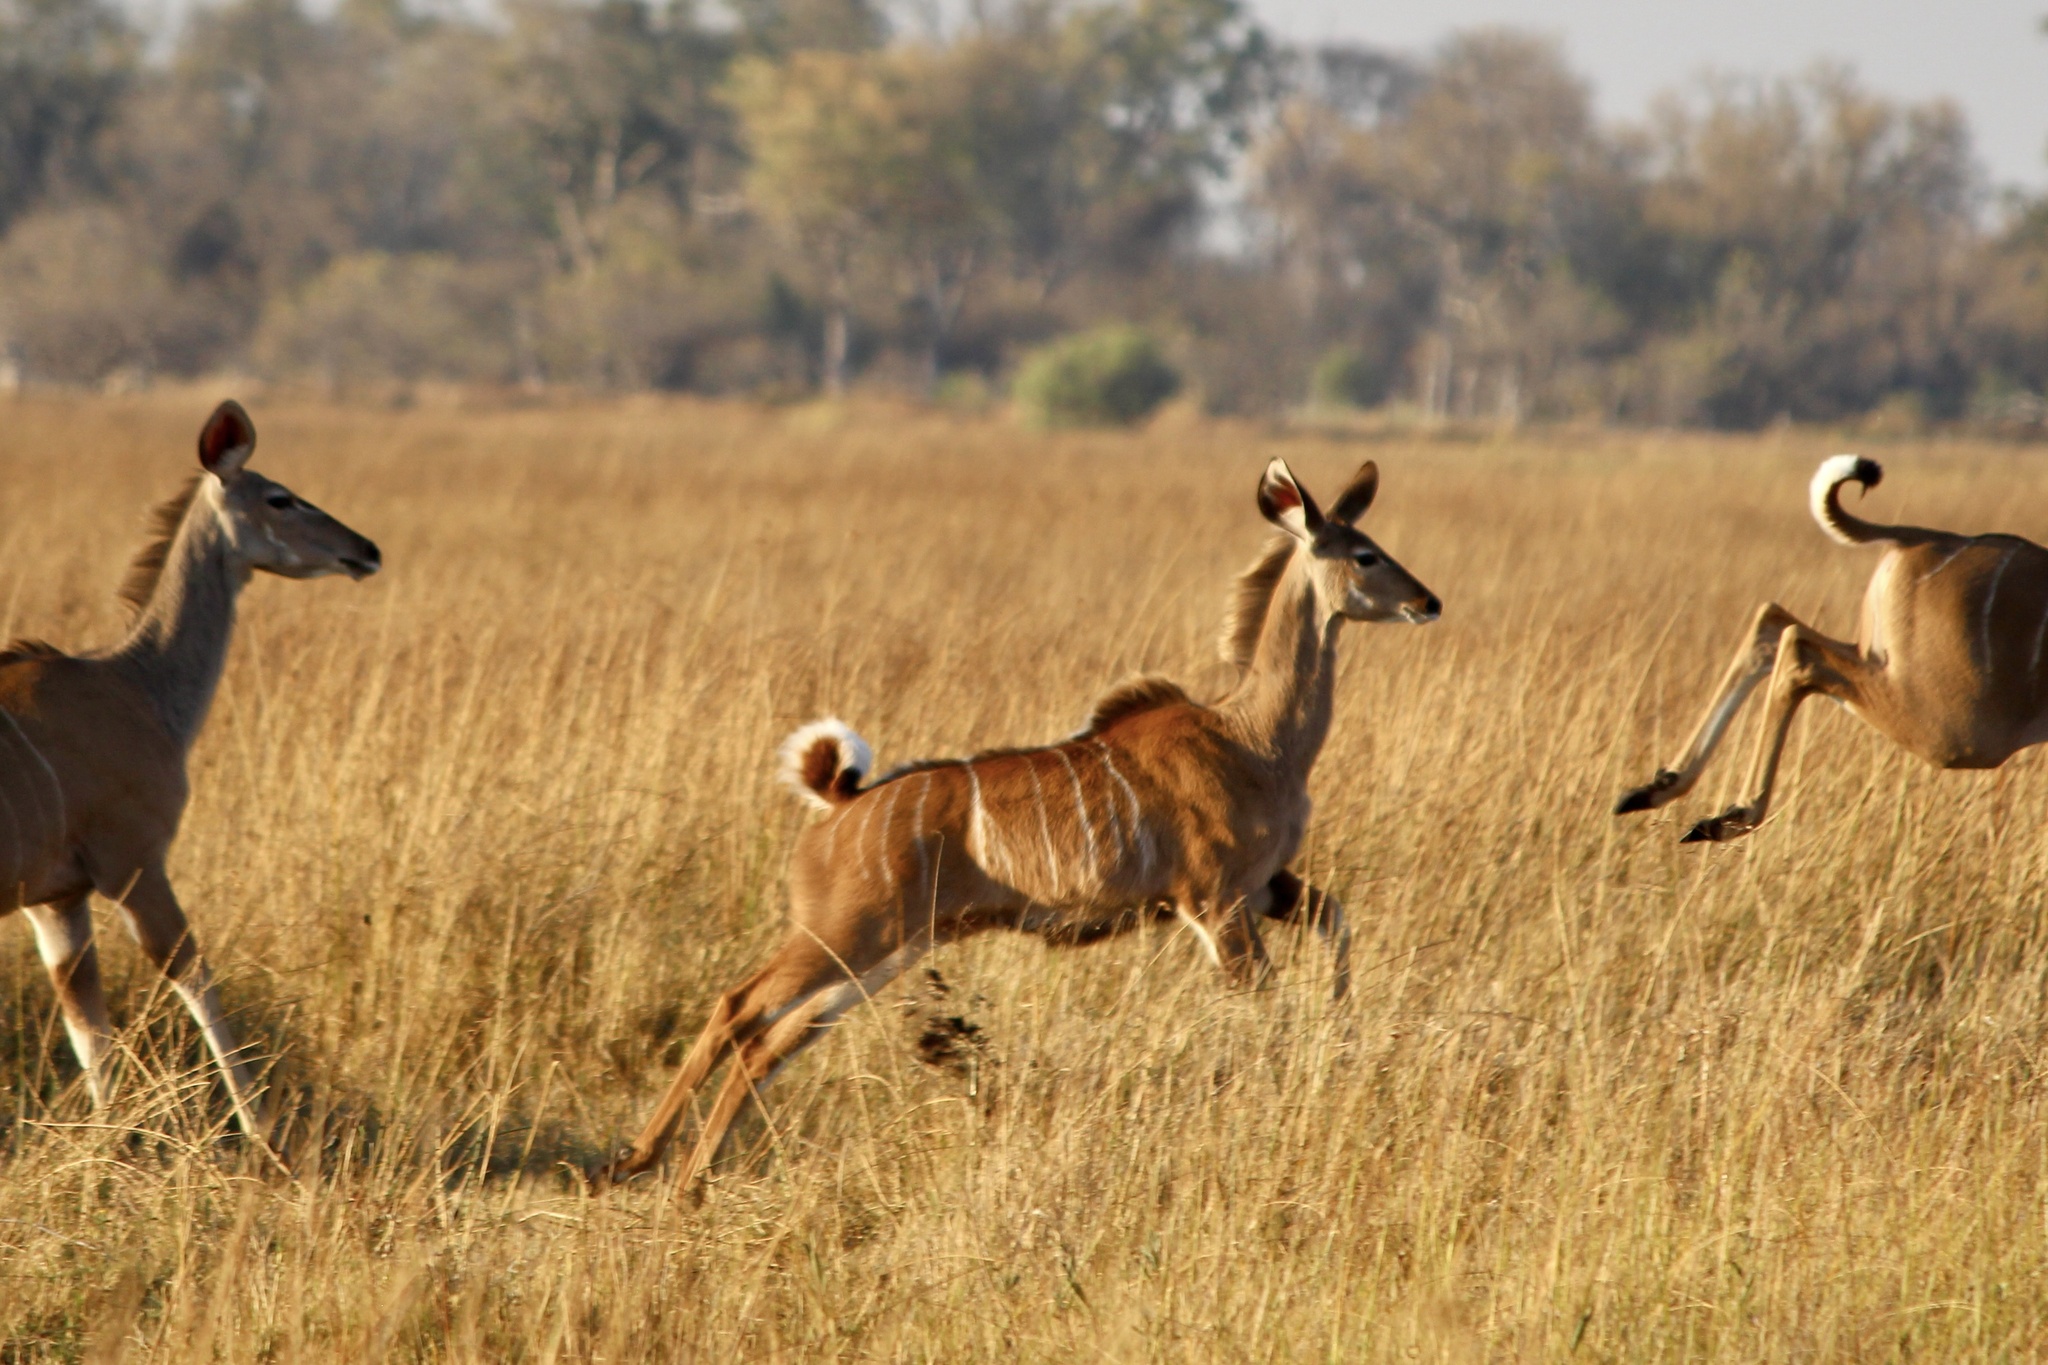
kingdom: Animalia
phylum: Chordata
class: Mammalia
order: Artiodactyla
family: Bovidae
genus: Tragelaphus
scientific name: Tragelaphus strepsiceros
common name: Greater kudu
